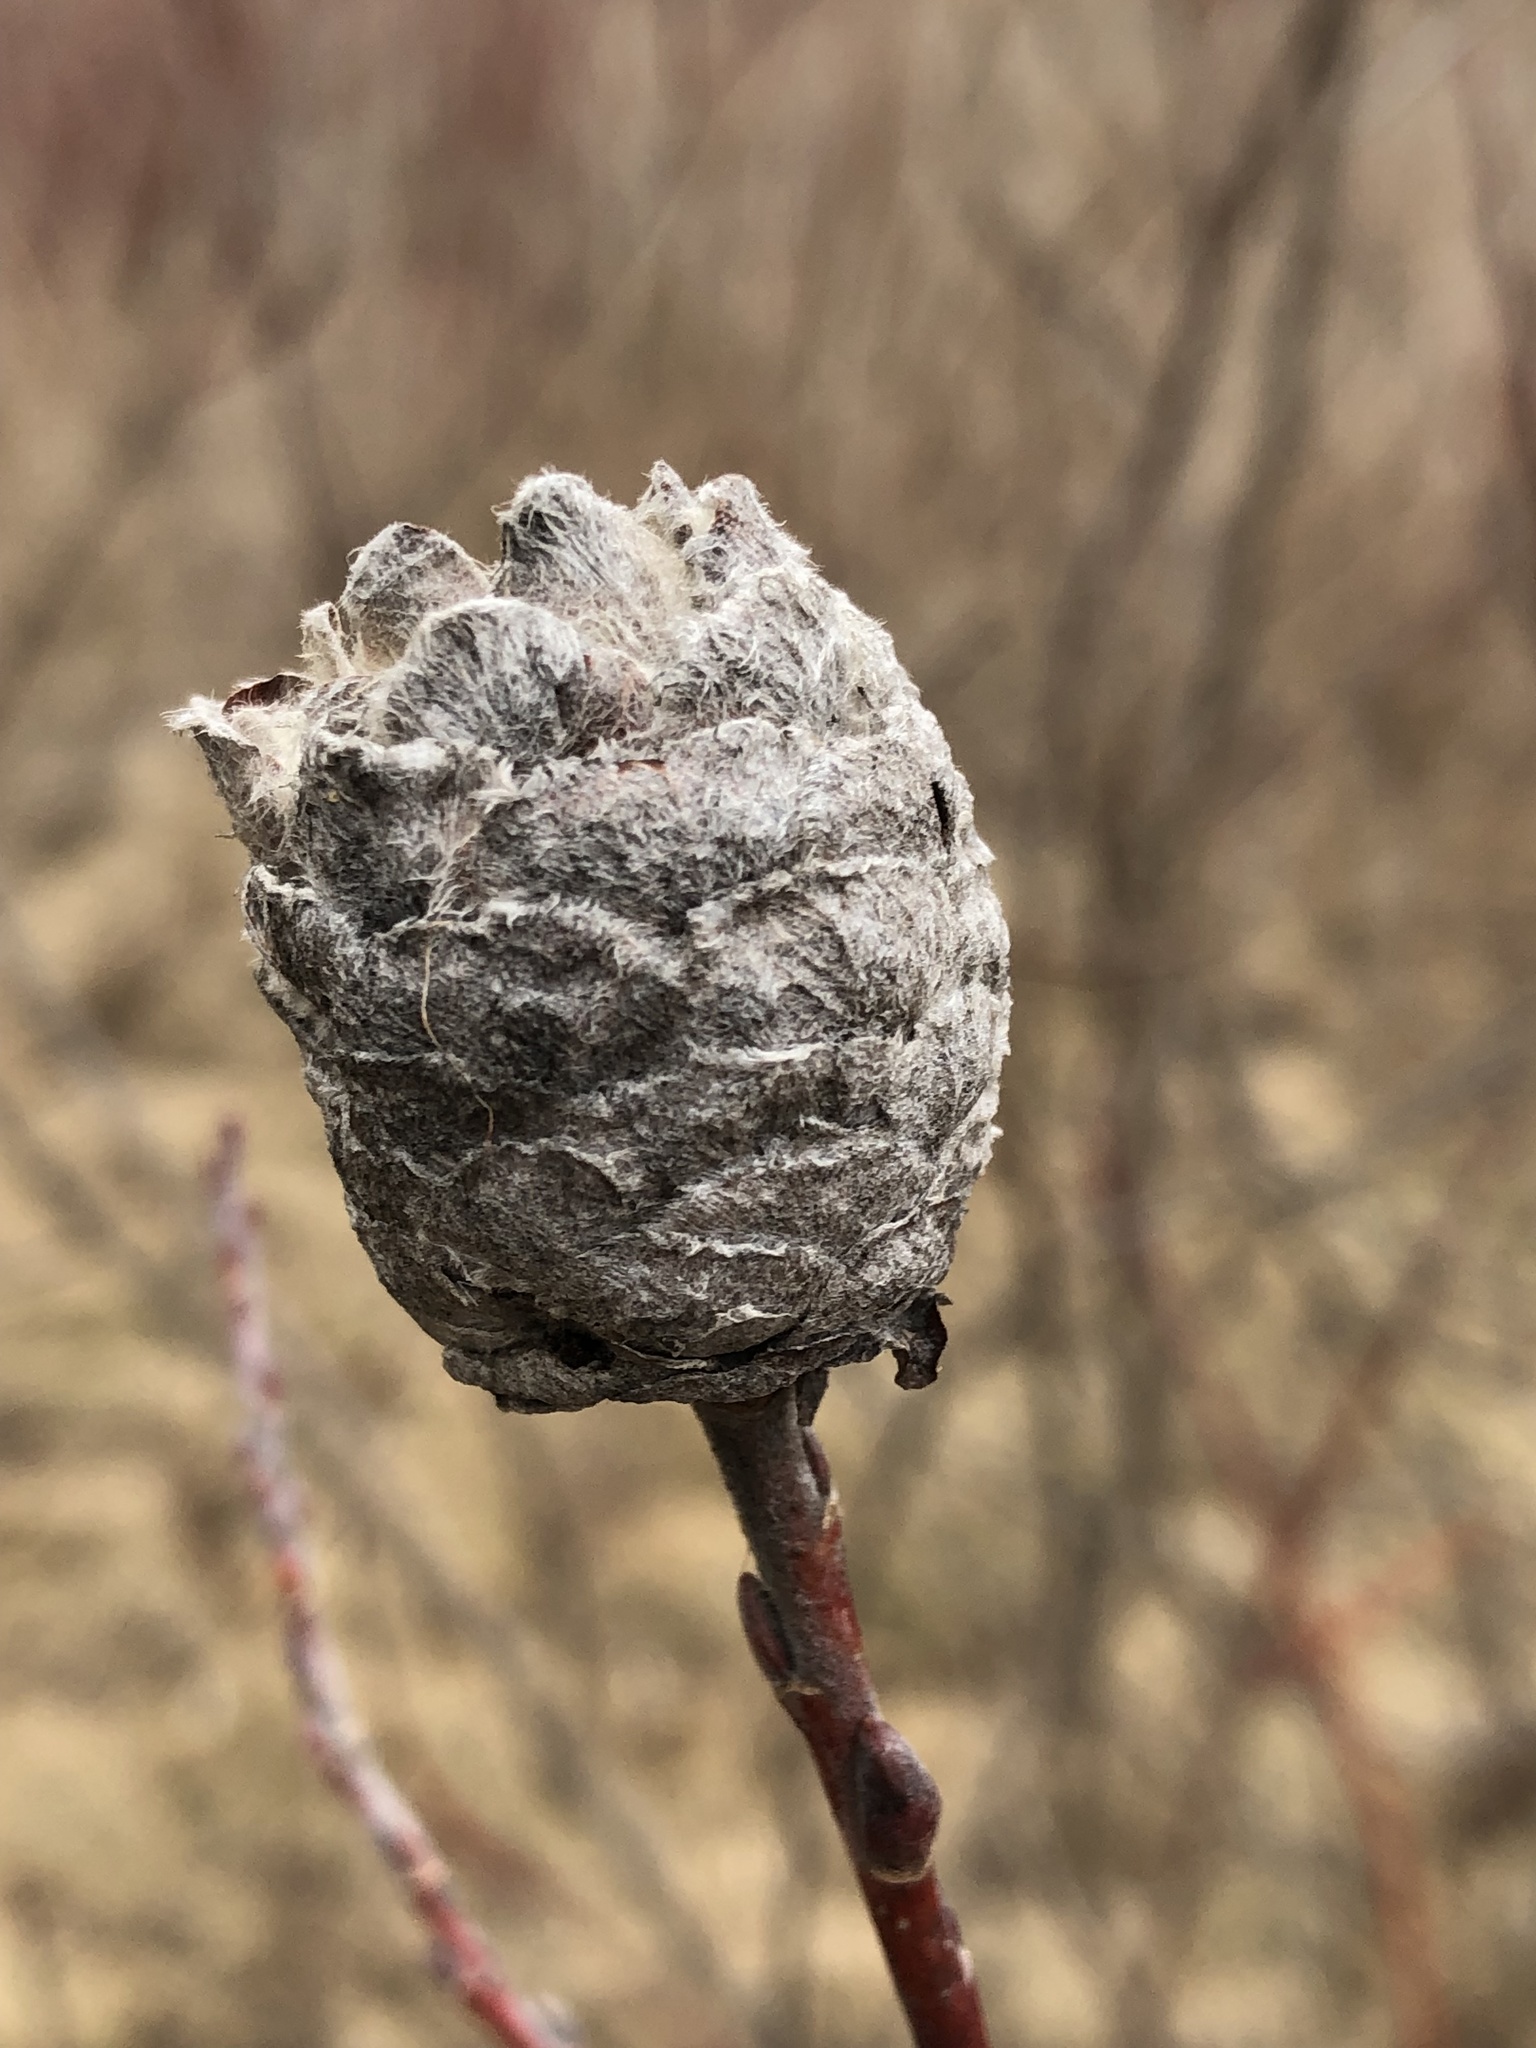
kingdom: Animalia
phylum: Arthropoda
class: Insecta
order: Diptera
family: Cecidomyiidae
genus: Rabdophaga
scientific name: Rabdophaga strobiloides
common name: Willow pinecone gall midge
